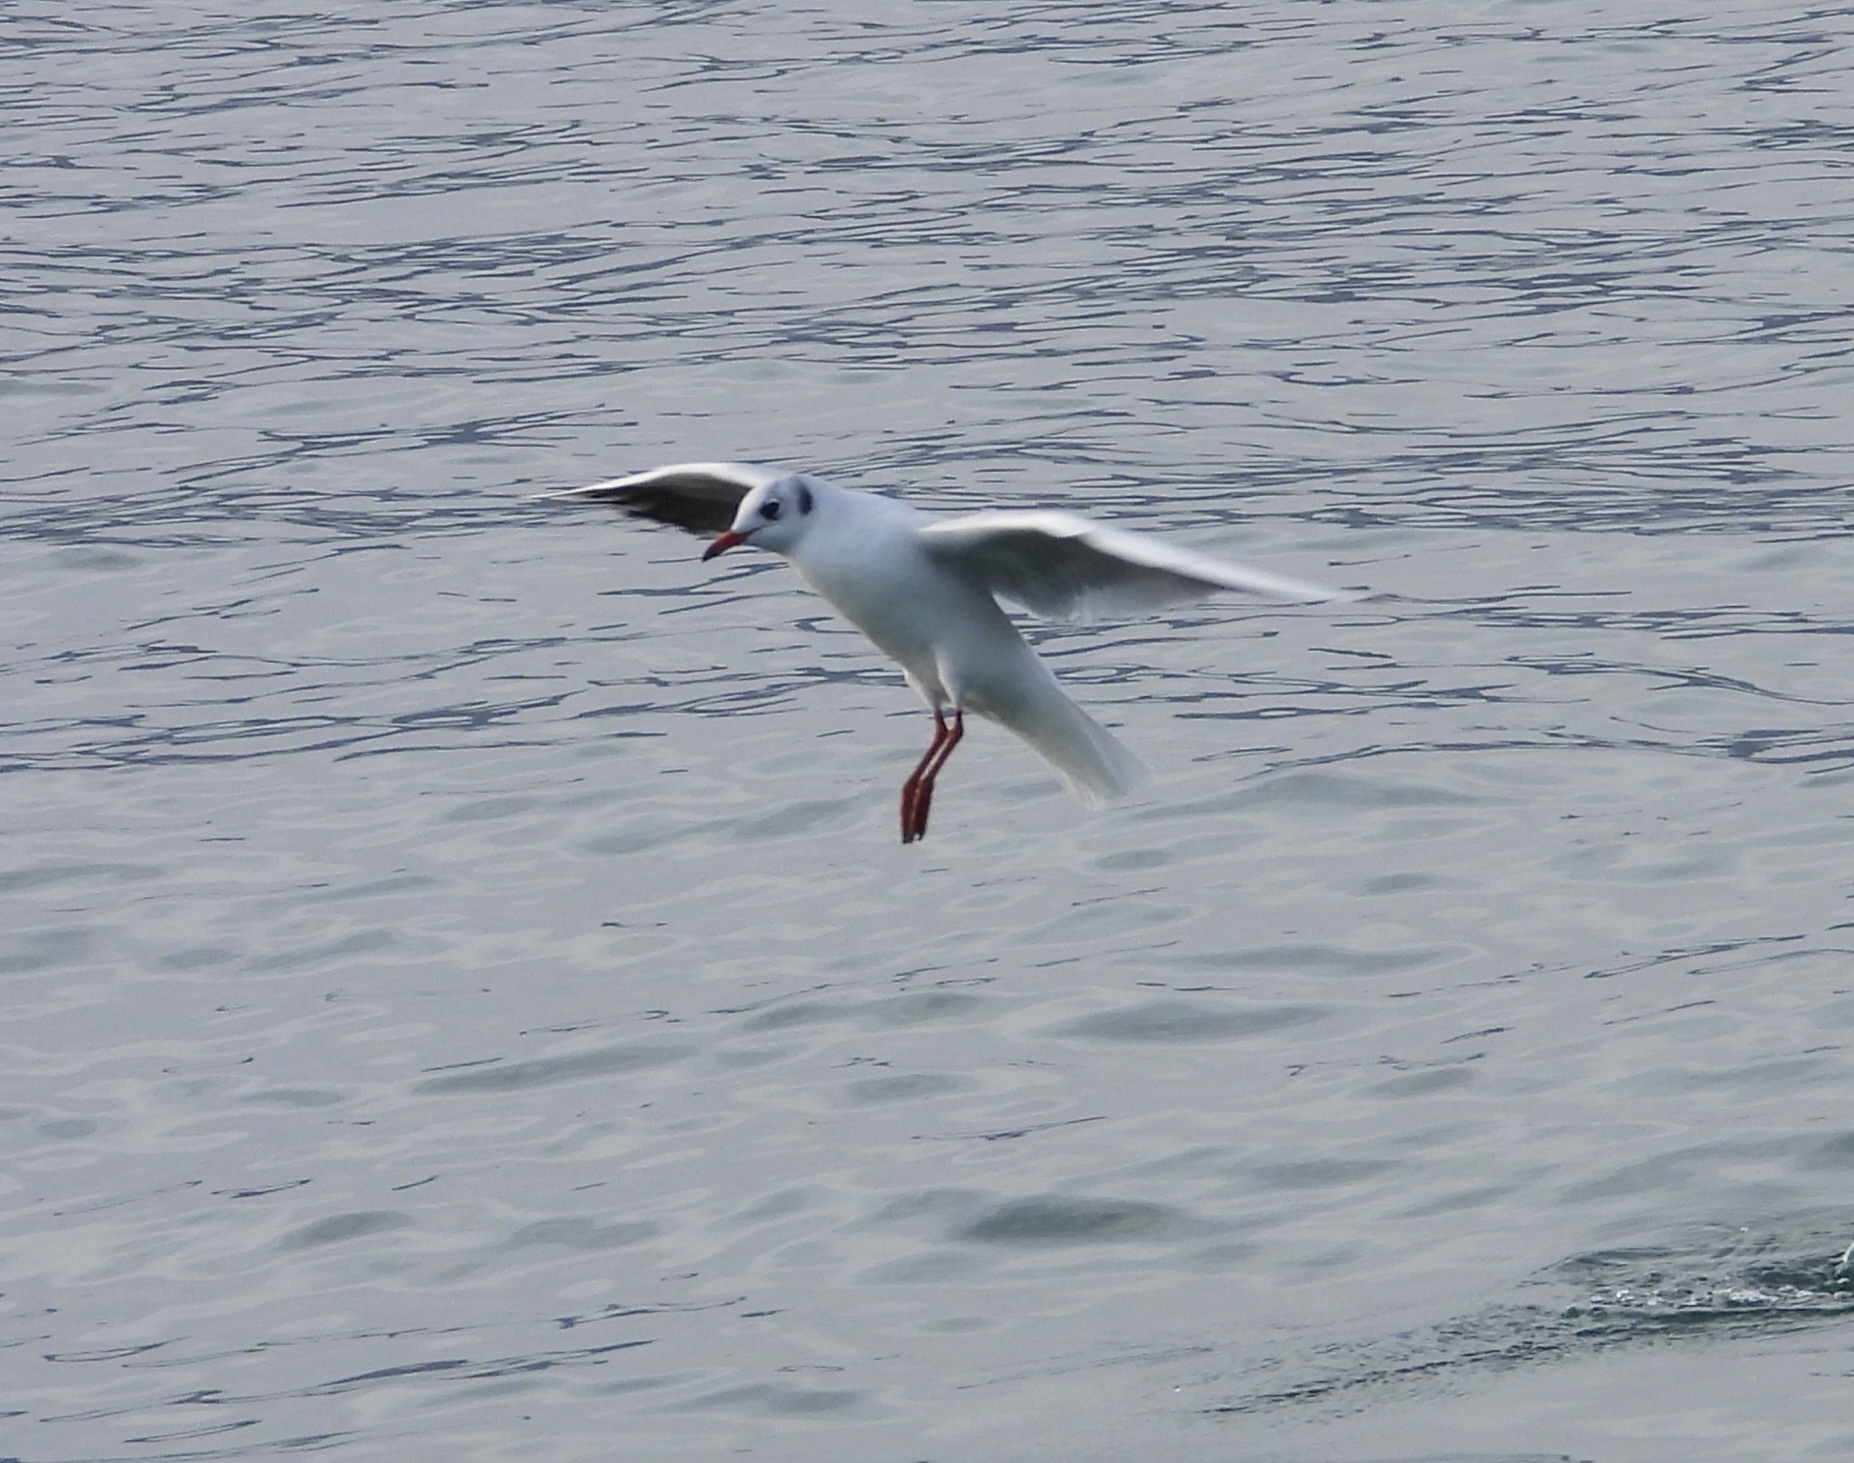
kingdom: Animalia
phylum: Chordata
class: Aves
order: Charadriiformes
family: Laridae
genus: Chroicocephalus
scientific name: Chroicocephalus ridibundus
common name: Black-headed gull
